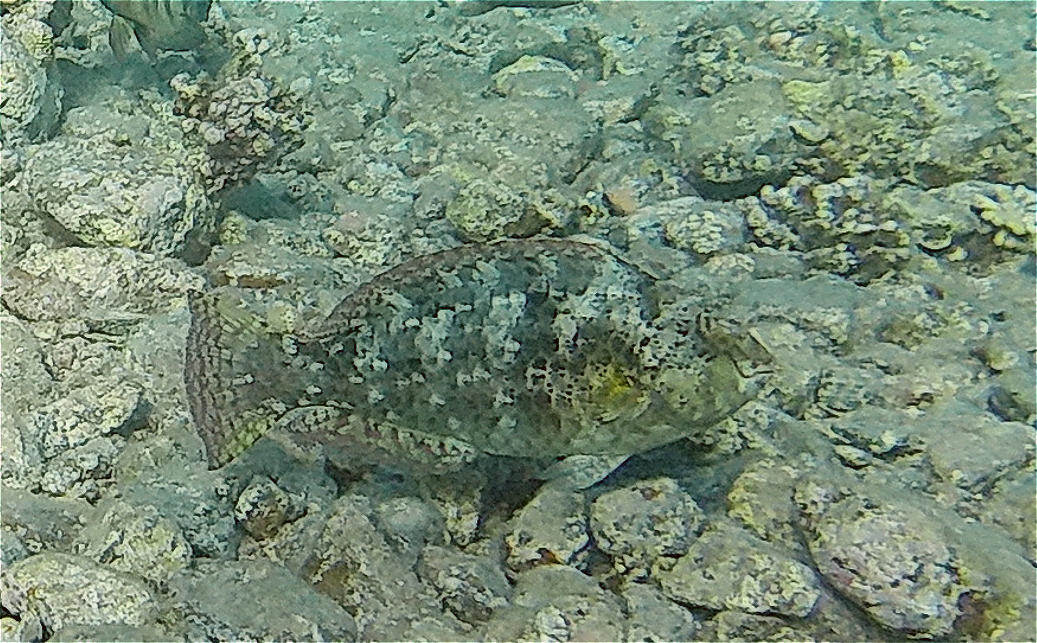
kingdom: Animalia
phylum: Chordata
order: Perciformes
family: Scaridae
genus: Calotomus
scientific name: Calotomus viridescens
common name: Dotted parrotfish
